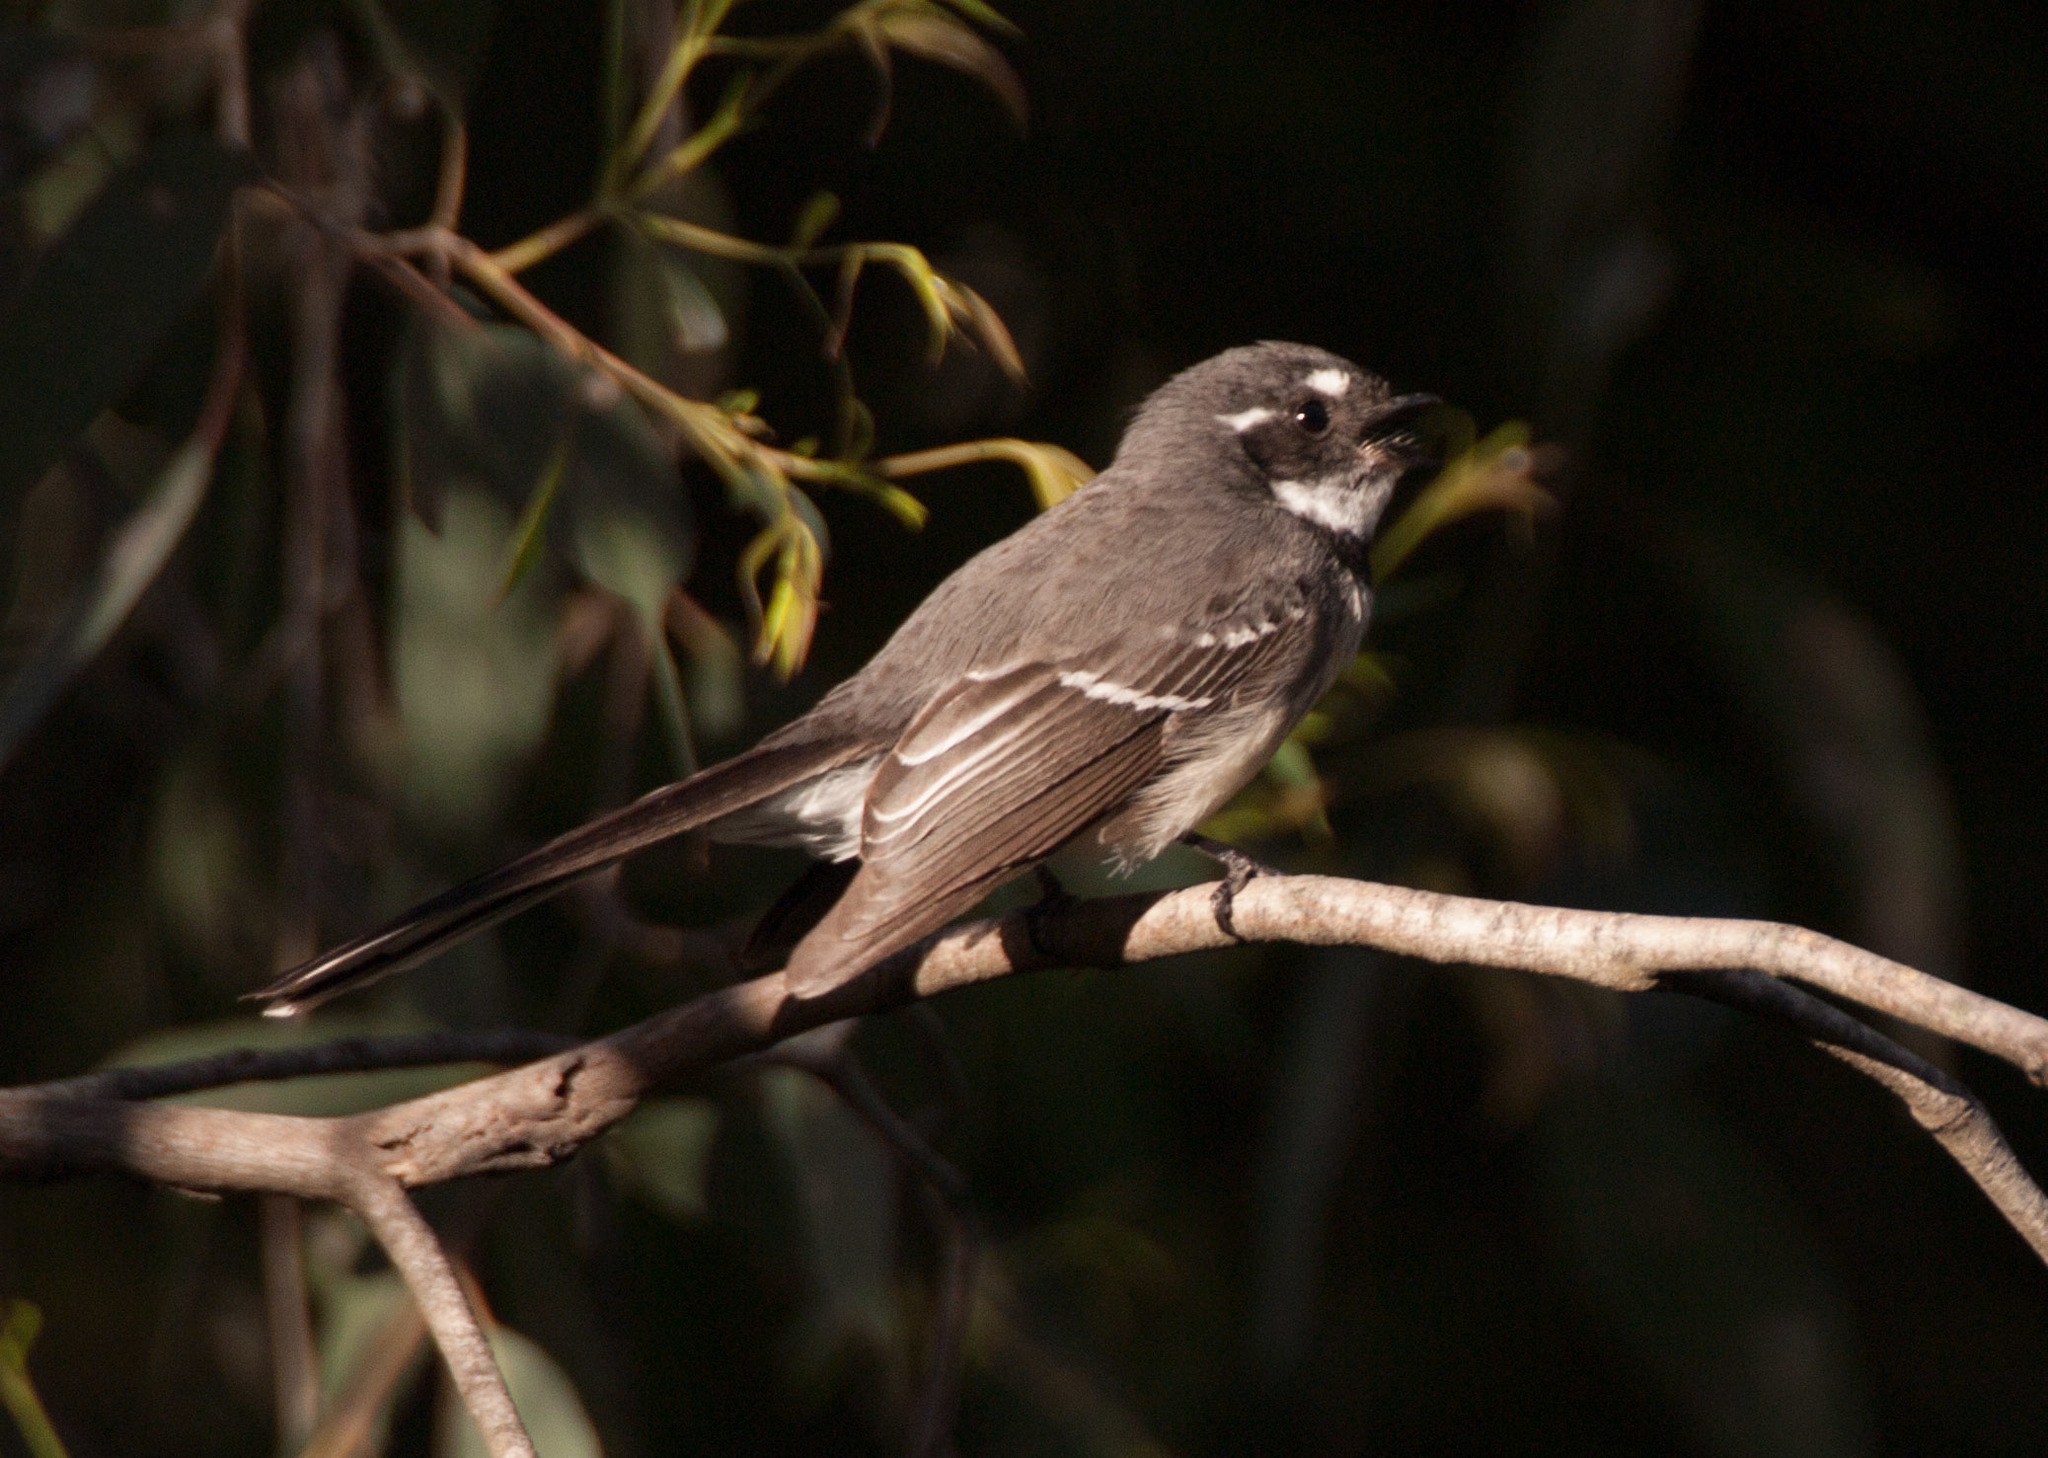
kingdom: Animalia
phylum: Chordata
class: Aves
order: Passeriformes
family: Rhipiduridae
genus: Rhipidura
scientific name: Rhipidura albiscapa
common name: Grey fantail
